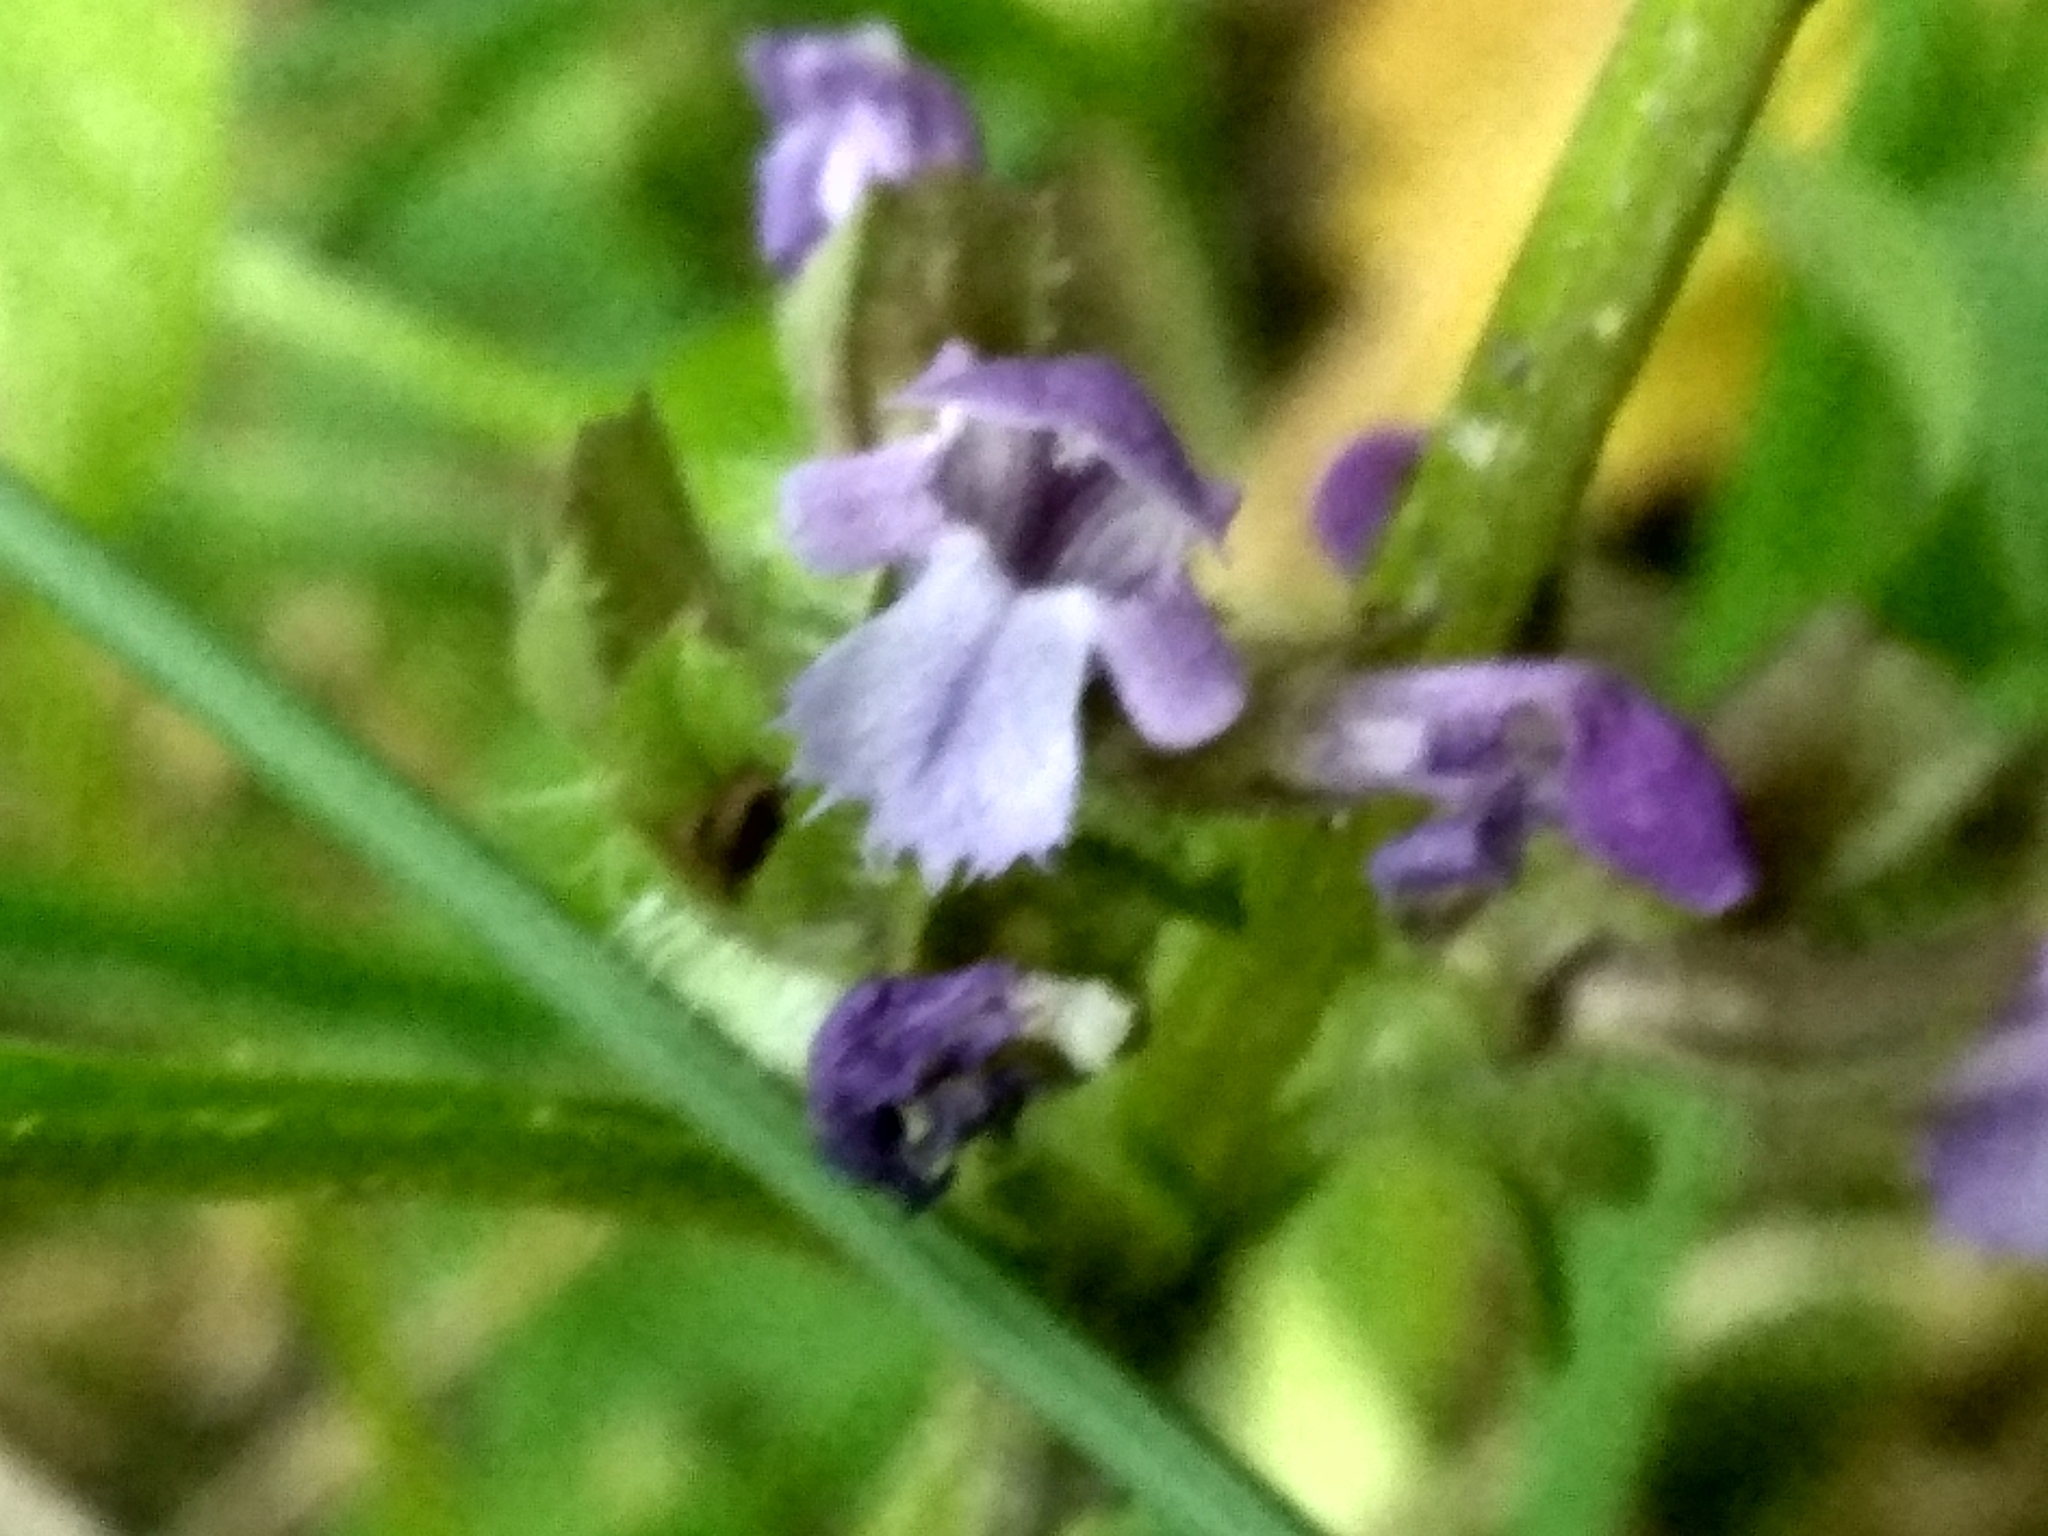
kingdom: Plantae
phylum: Tracheophyta
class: Magnoliopsida
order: Lamiales
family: Lamiaceae
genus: Prunella
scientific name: Prunella vulgaris
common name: Heal-all
